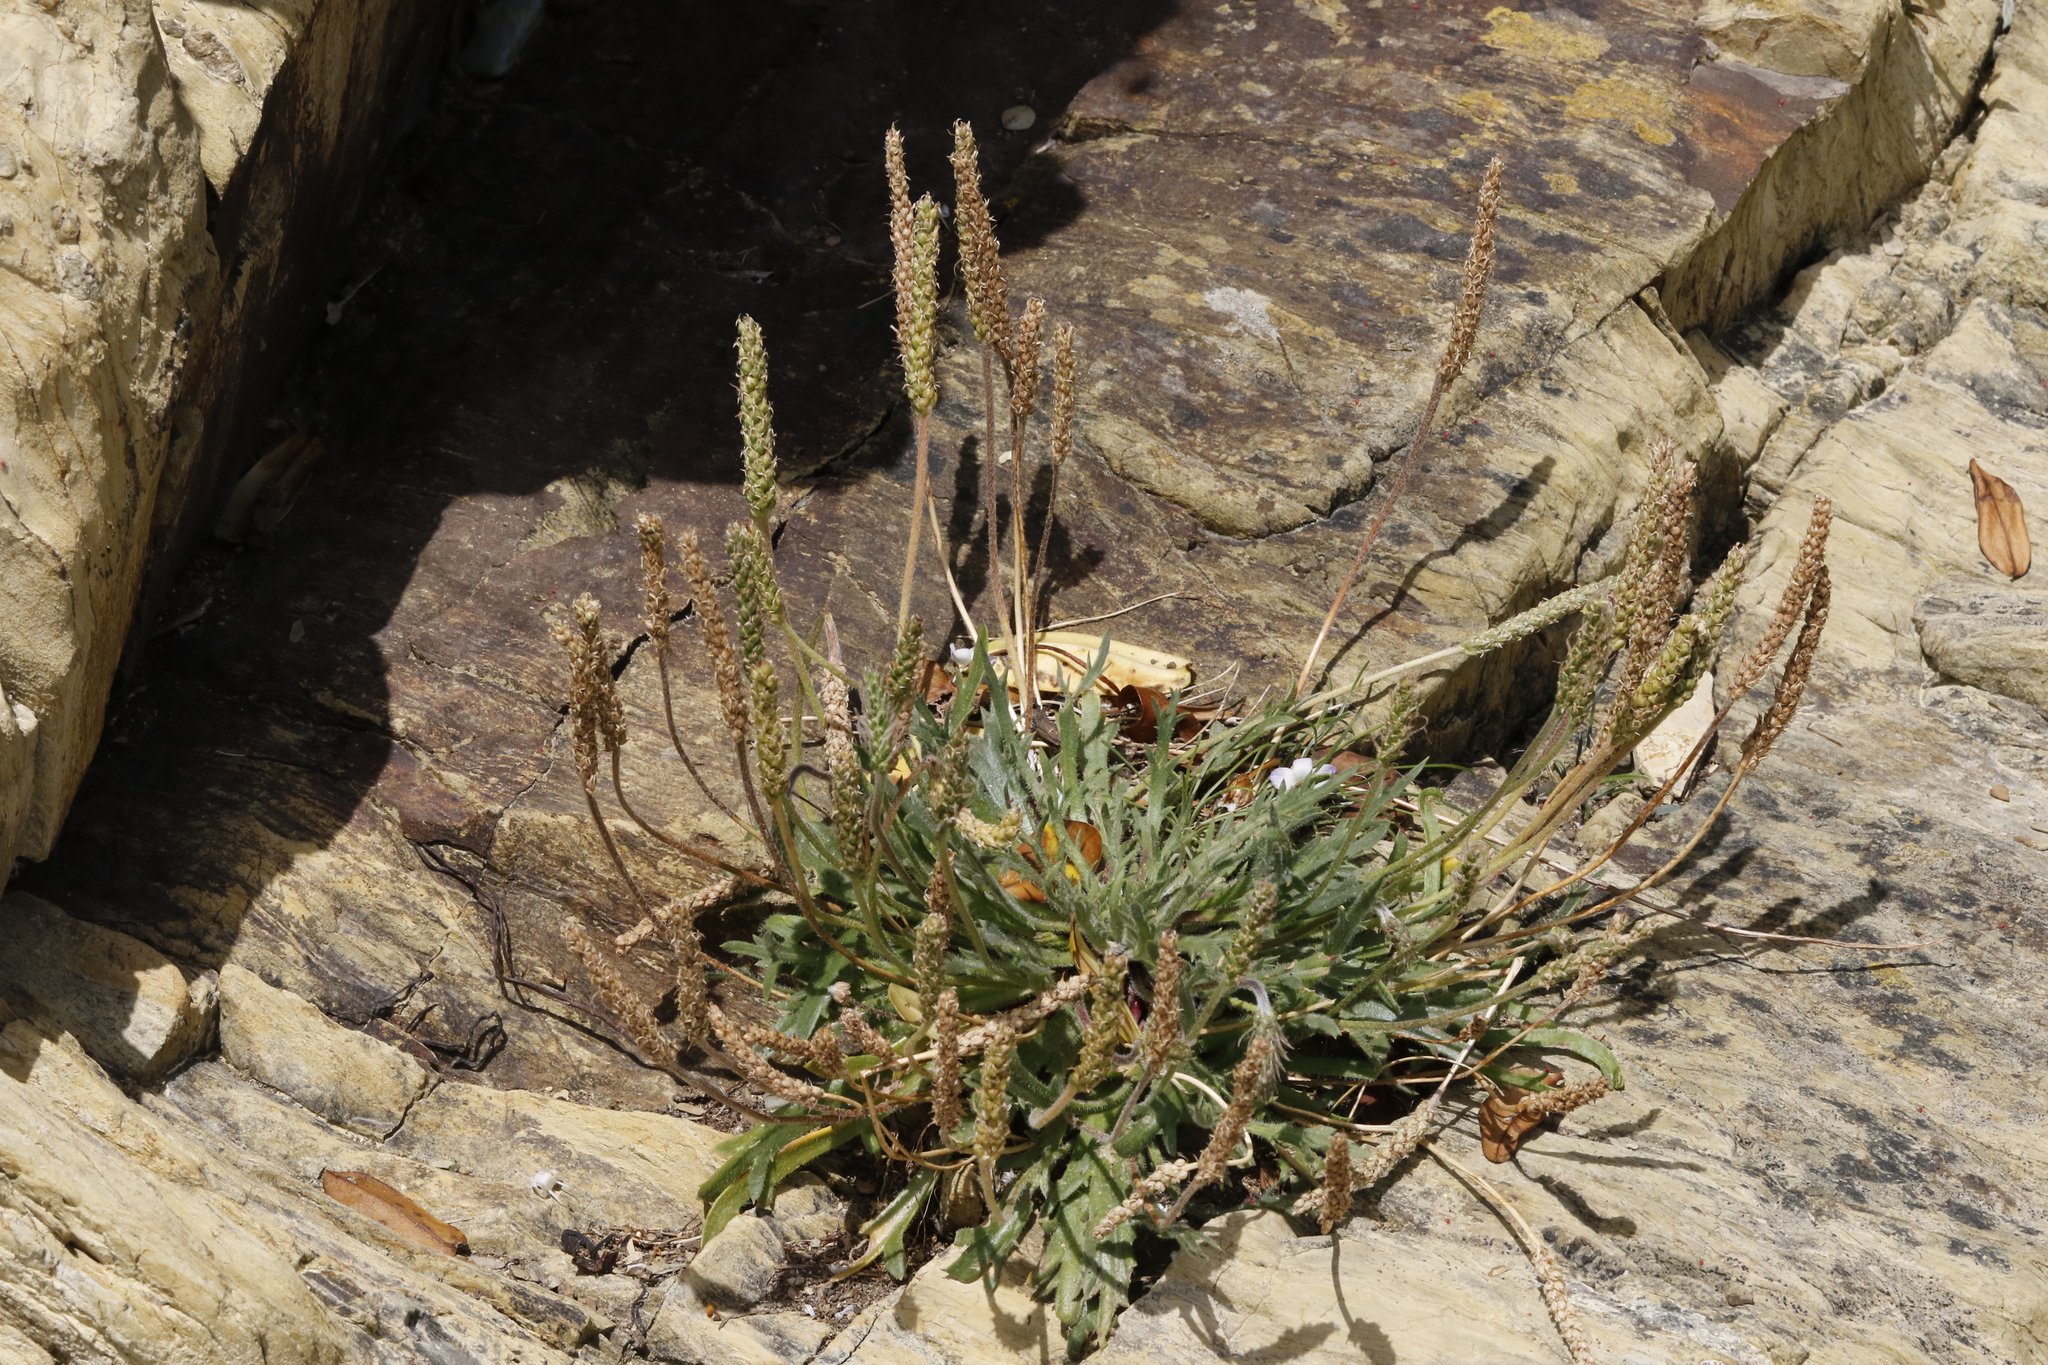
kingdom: Plantae
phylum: Tracheophyta
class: Magnoliopsida
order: Lamiales
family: Plantaginaceae
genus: Plantago
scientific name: Plantago coronopus
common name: Buck's-horn plantain
